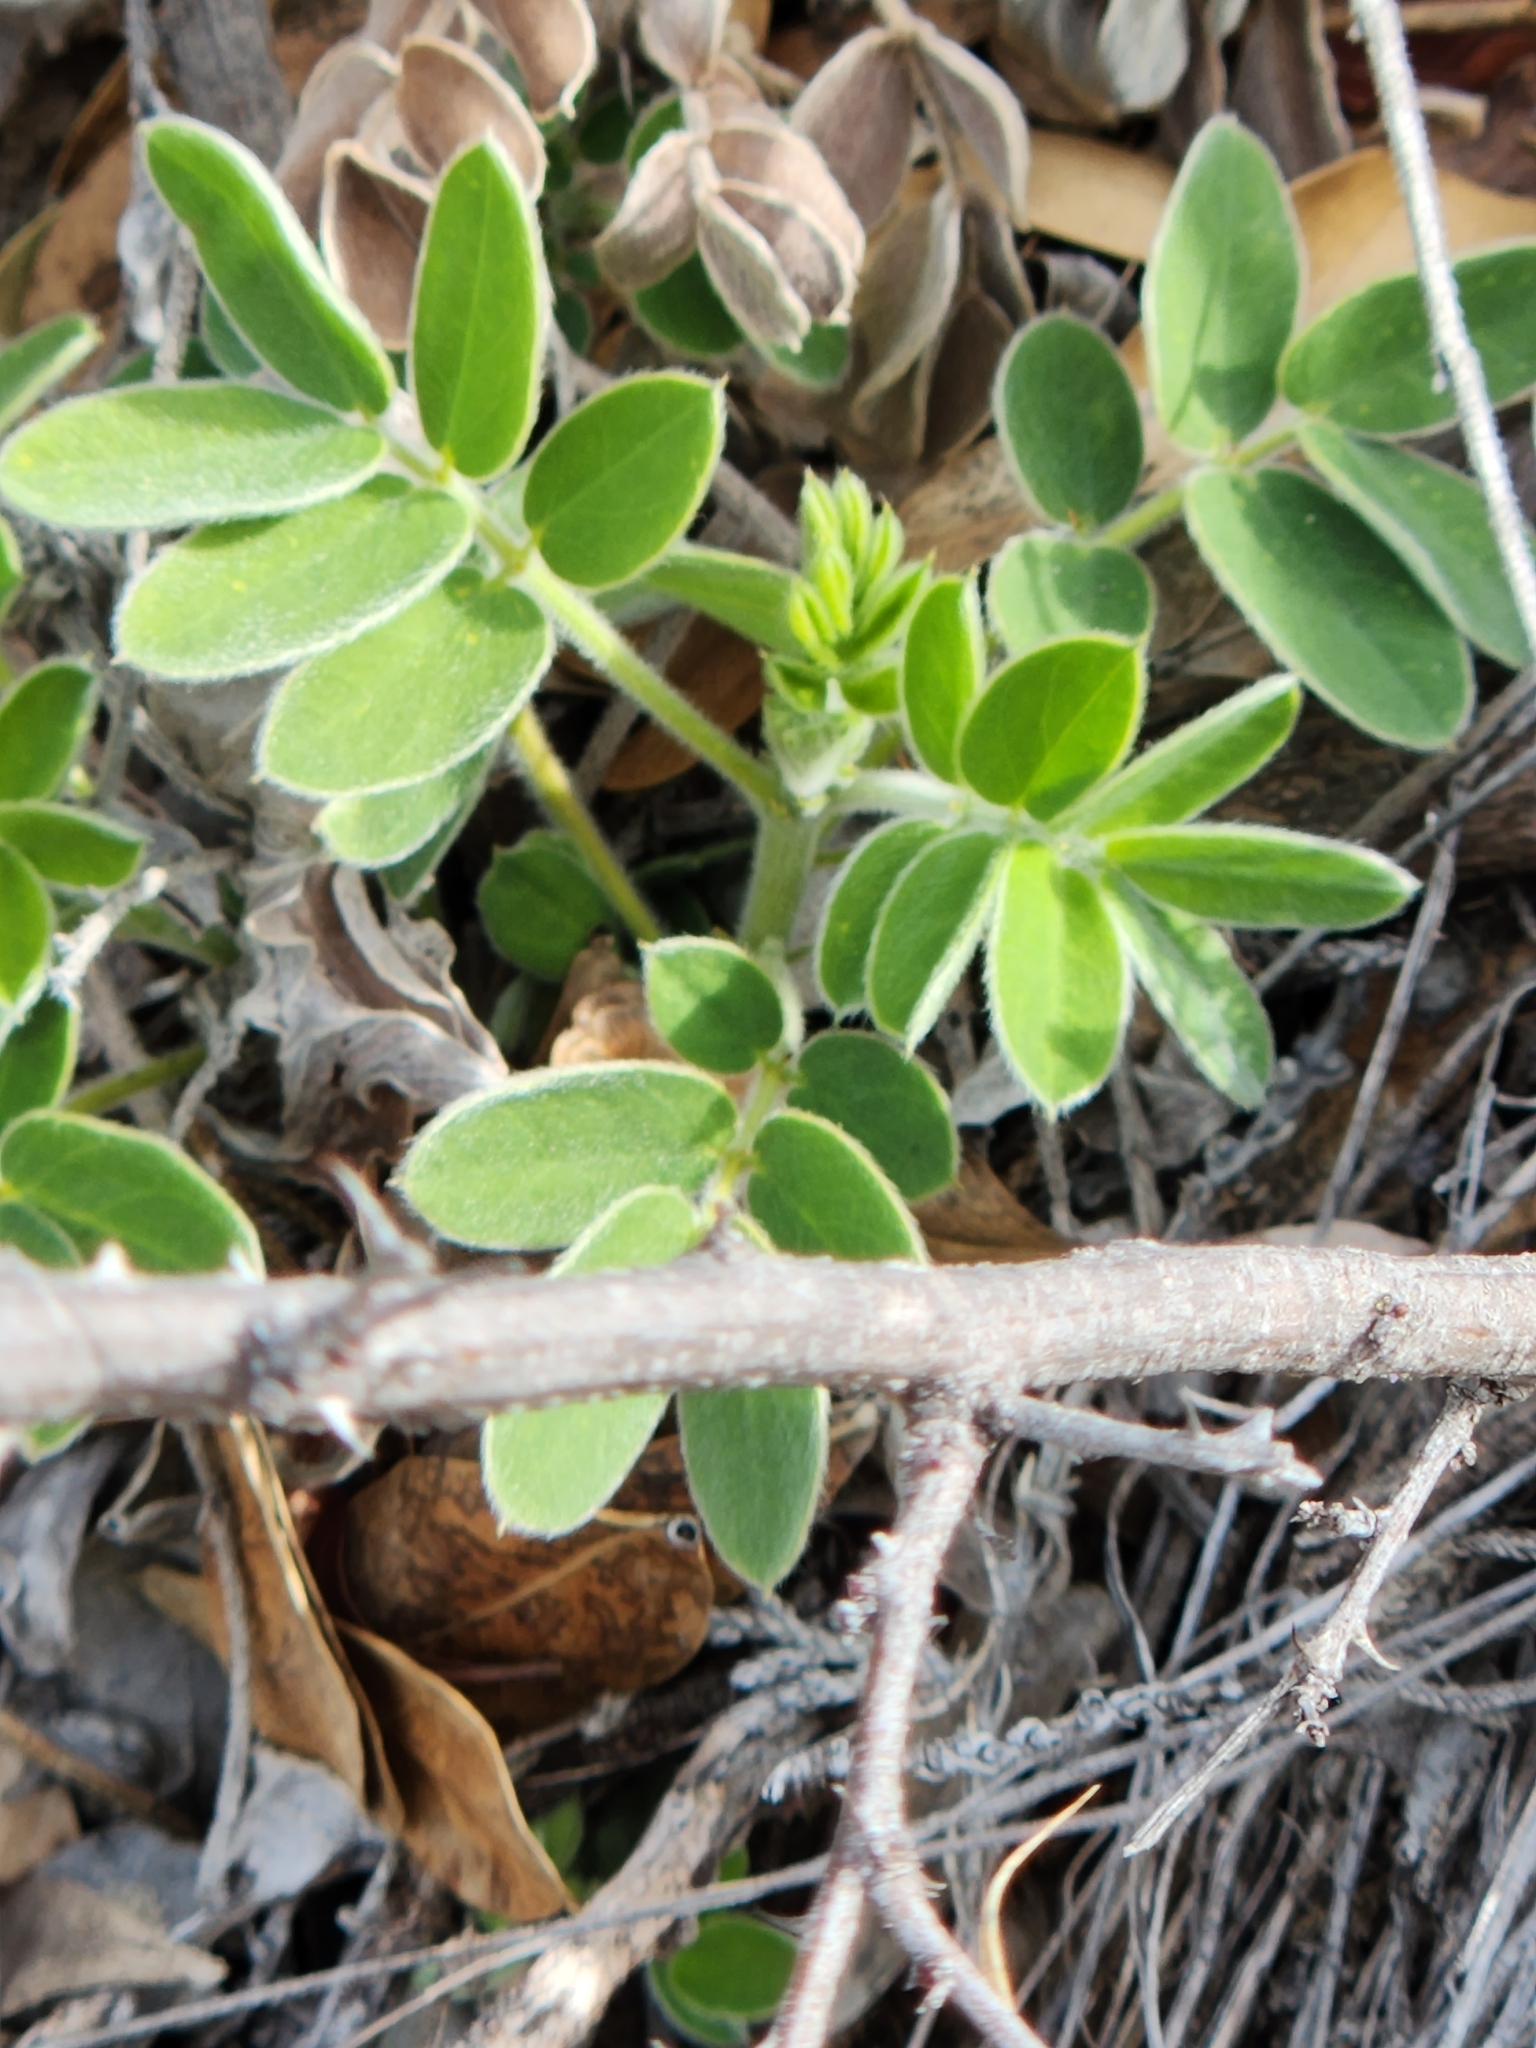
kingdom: Plantae
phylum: Tracheophyta
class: Magnoliopsida
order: Fabales
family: Fabaceae
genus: Senna
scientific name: Senna lindheimeriana
